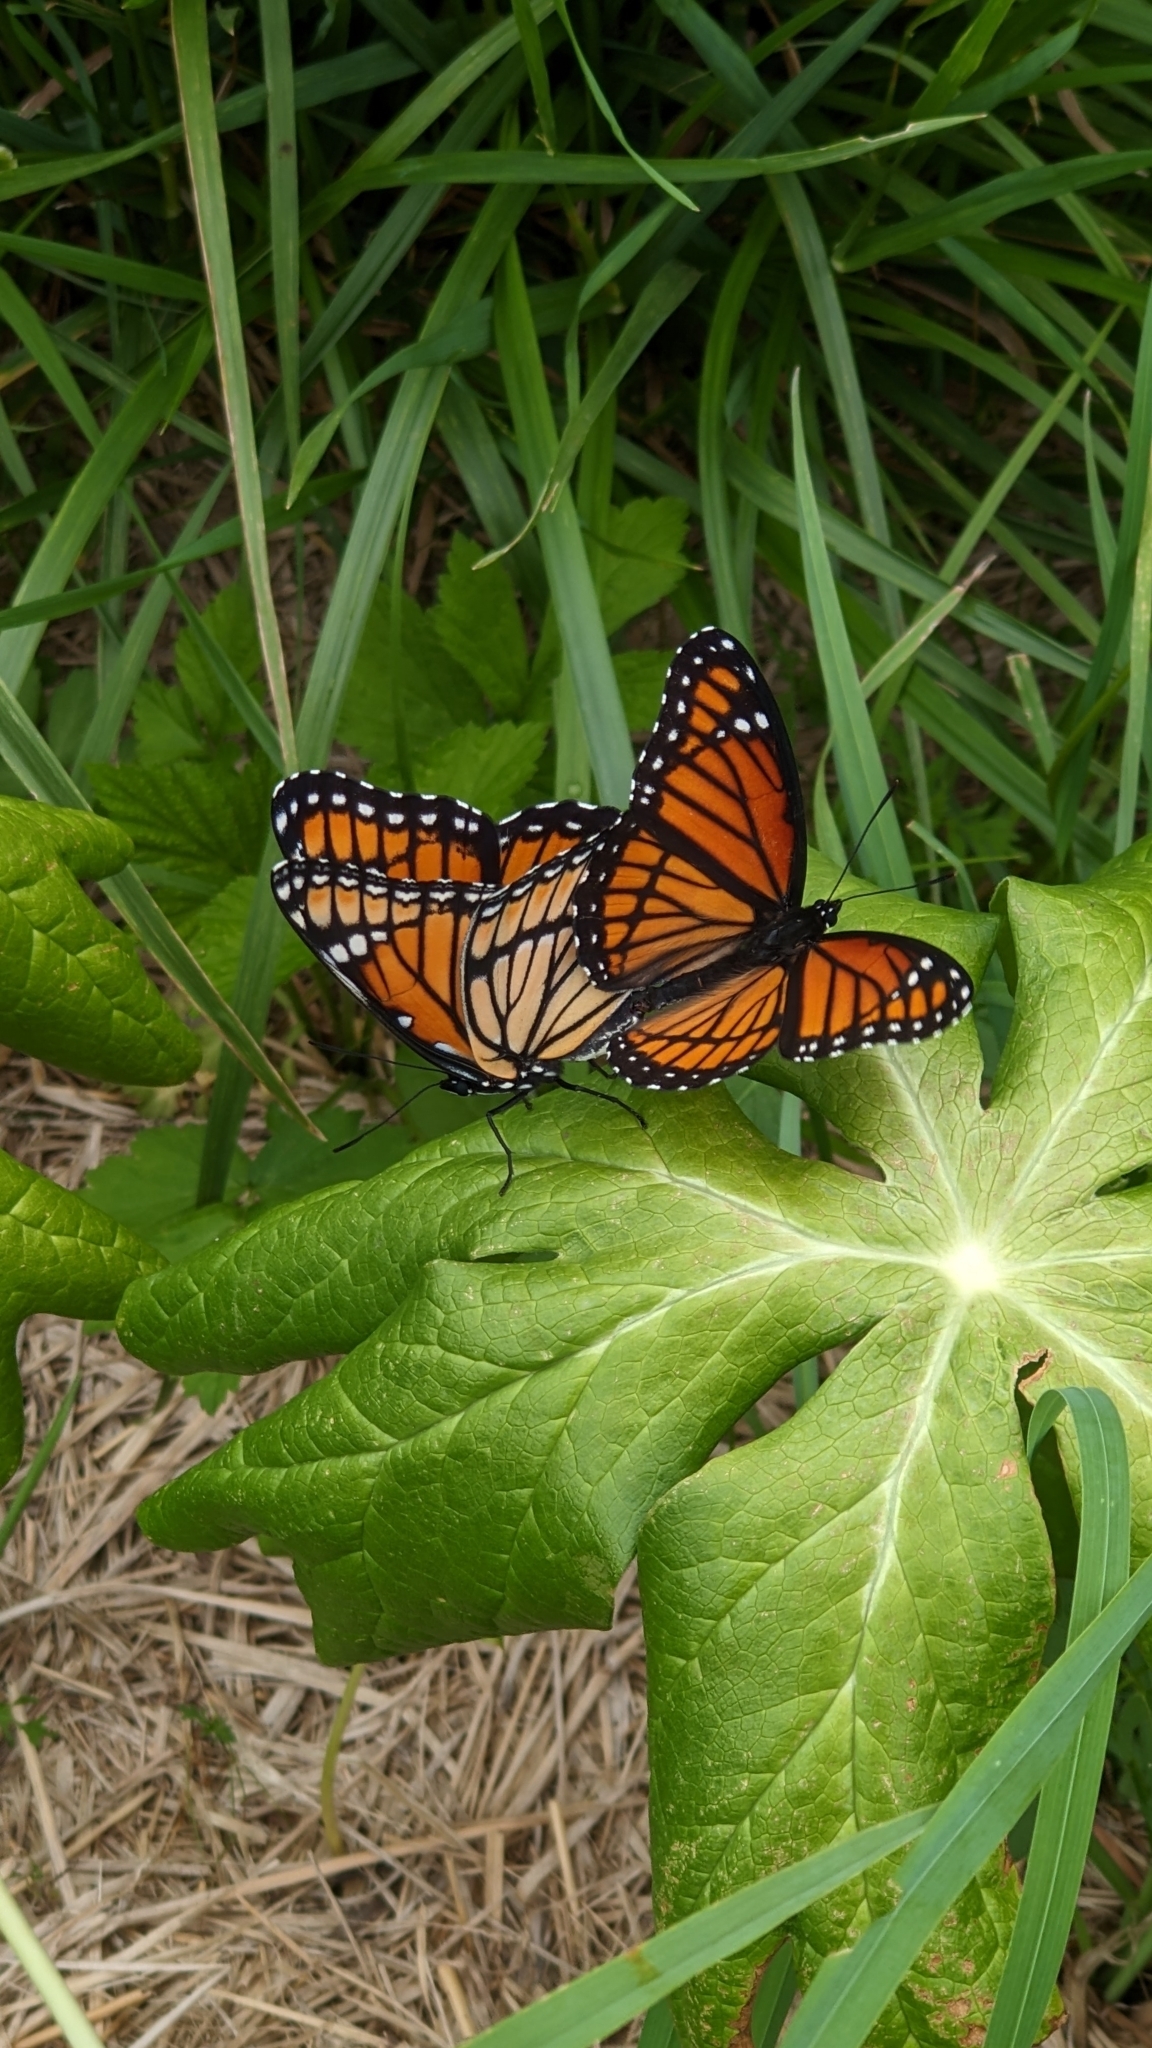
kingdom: Animalia
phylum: Arthropoda
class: Insecta
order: Lepidoptera
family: Nymphalidae
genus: Limenitis
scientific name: Limenitis archippus
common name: Viceroy
